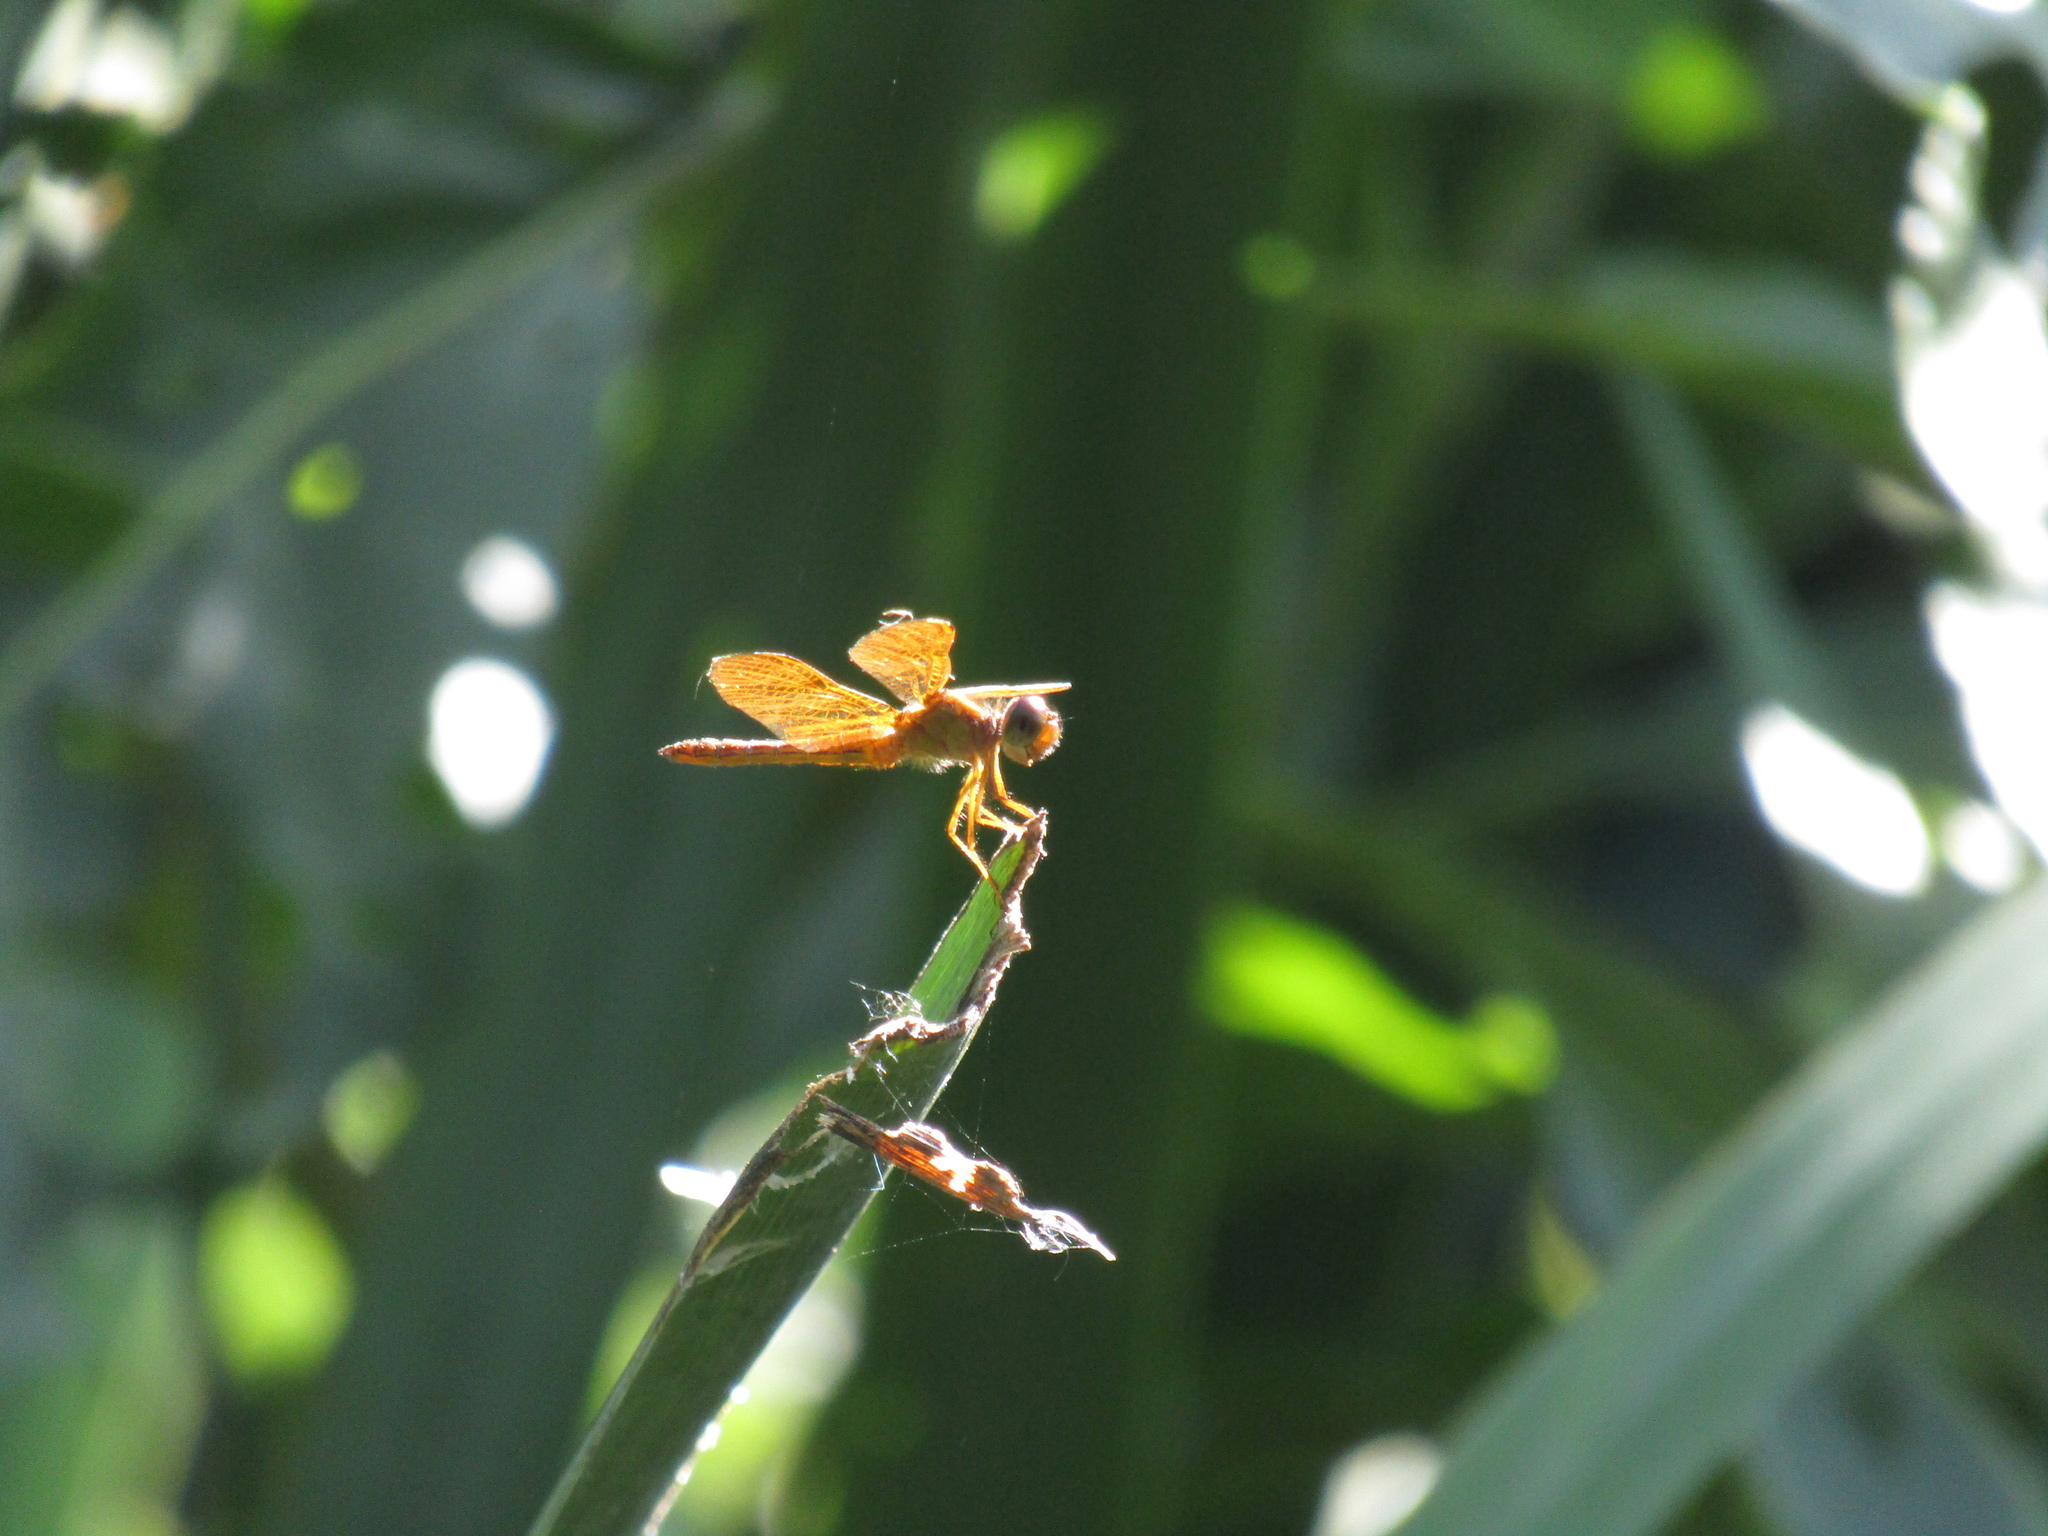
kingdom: Animalia
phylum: Arthropoda
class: Insecta
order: Odonata
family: Libellulidae
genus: Perithemis
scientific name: Perithemis icteroptera
